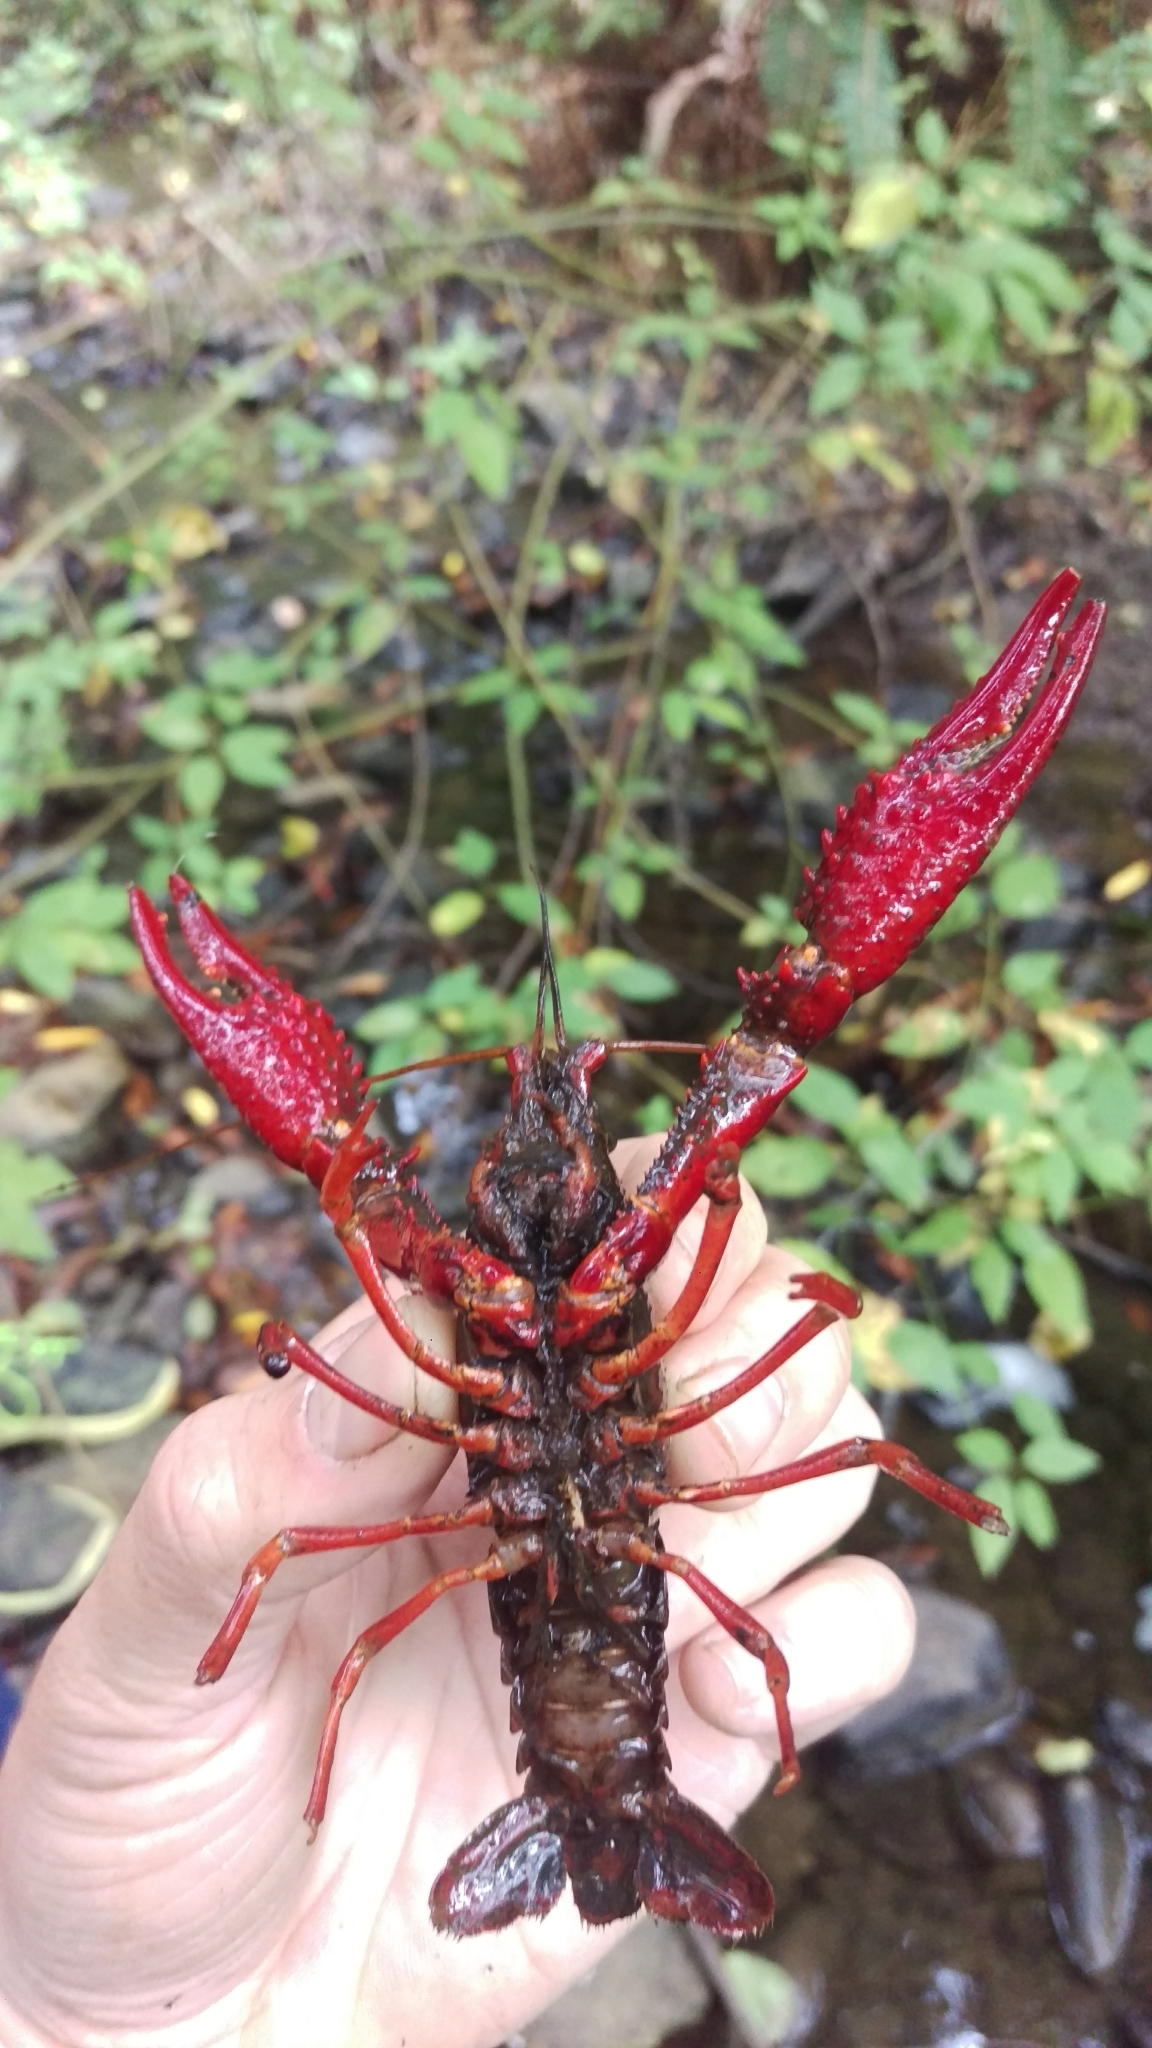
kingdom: Animalia
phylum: Arthropoda
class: Malacostraca
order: Decapoda
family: Cambaridae
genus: Procambarus
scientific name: Procambarus clarkii
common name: Red swamp crayfish
